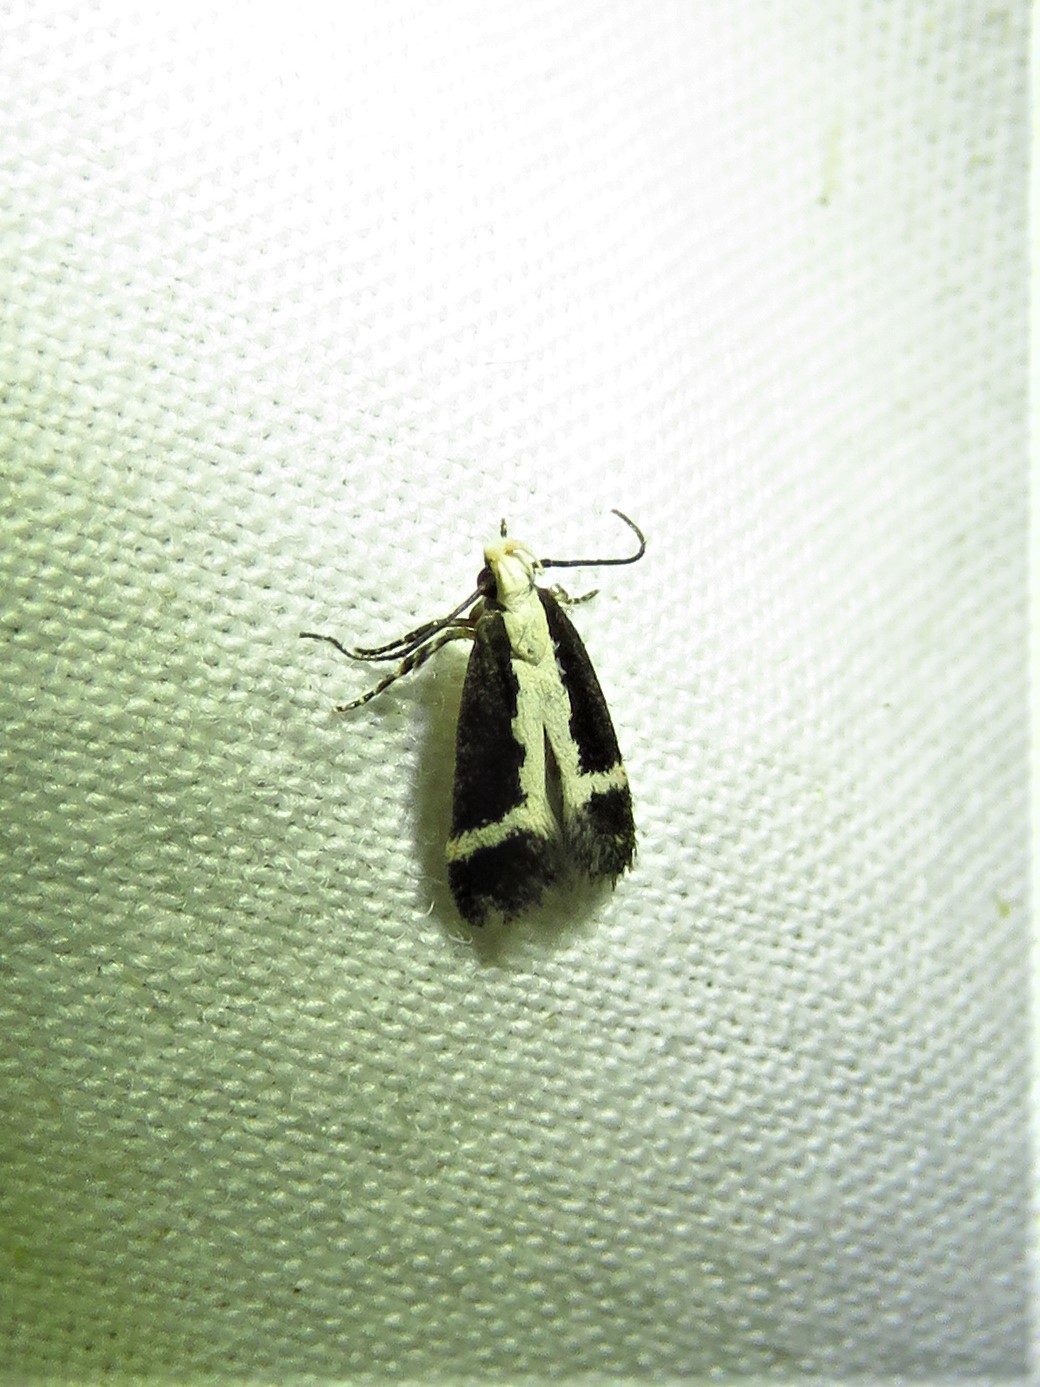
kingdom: Animalia
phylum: Arthropoda
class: Insecta
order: Lepidoptera
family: Gelechiidae
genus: Aroga
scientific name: Aroga camptogramma
